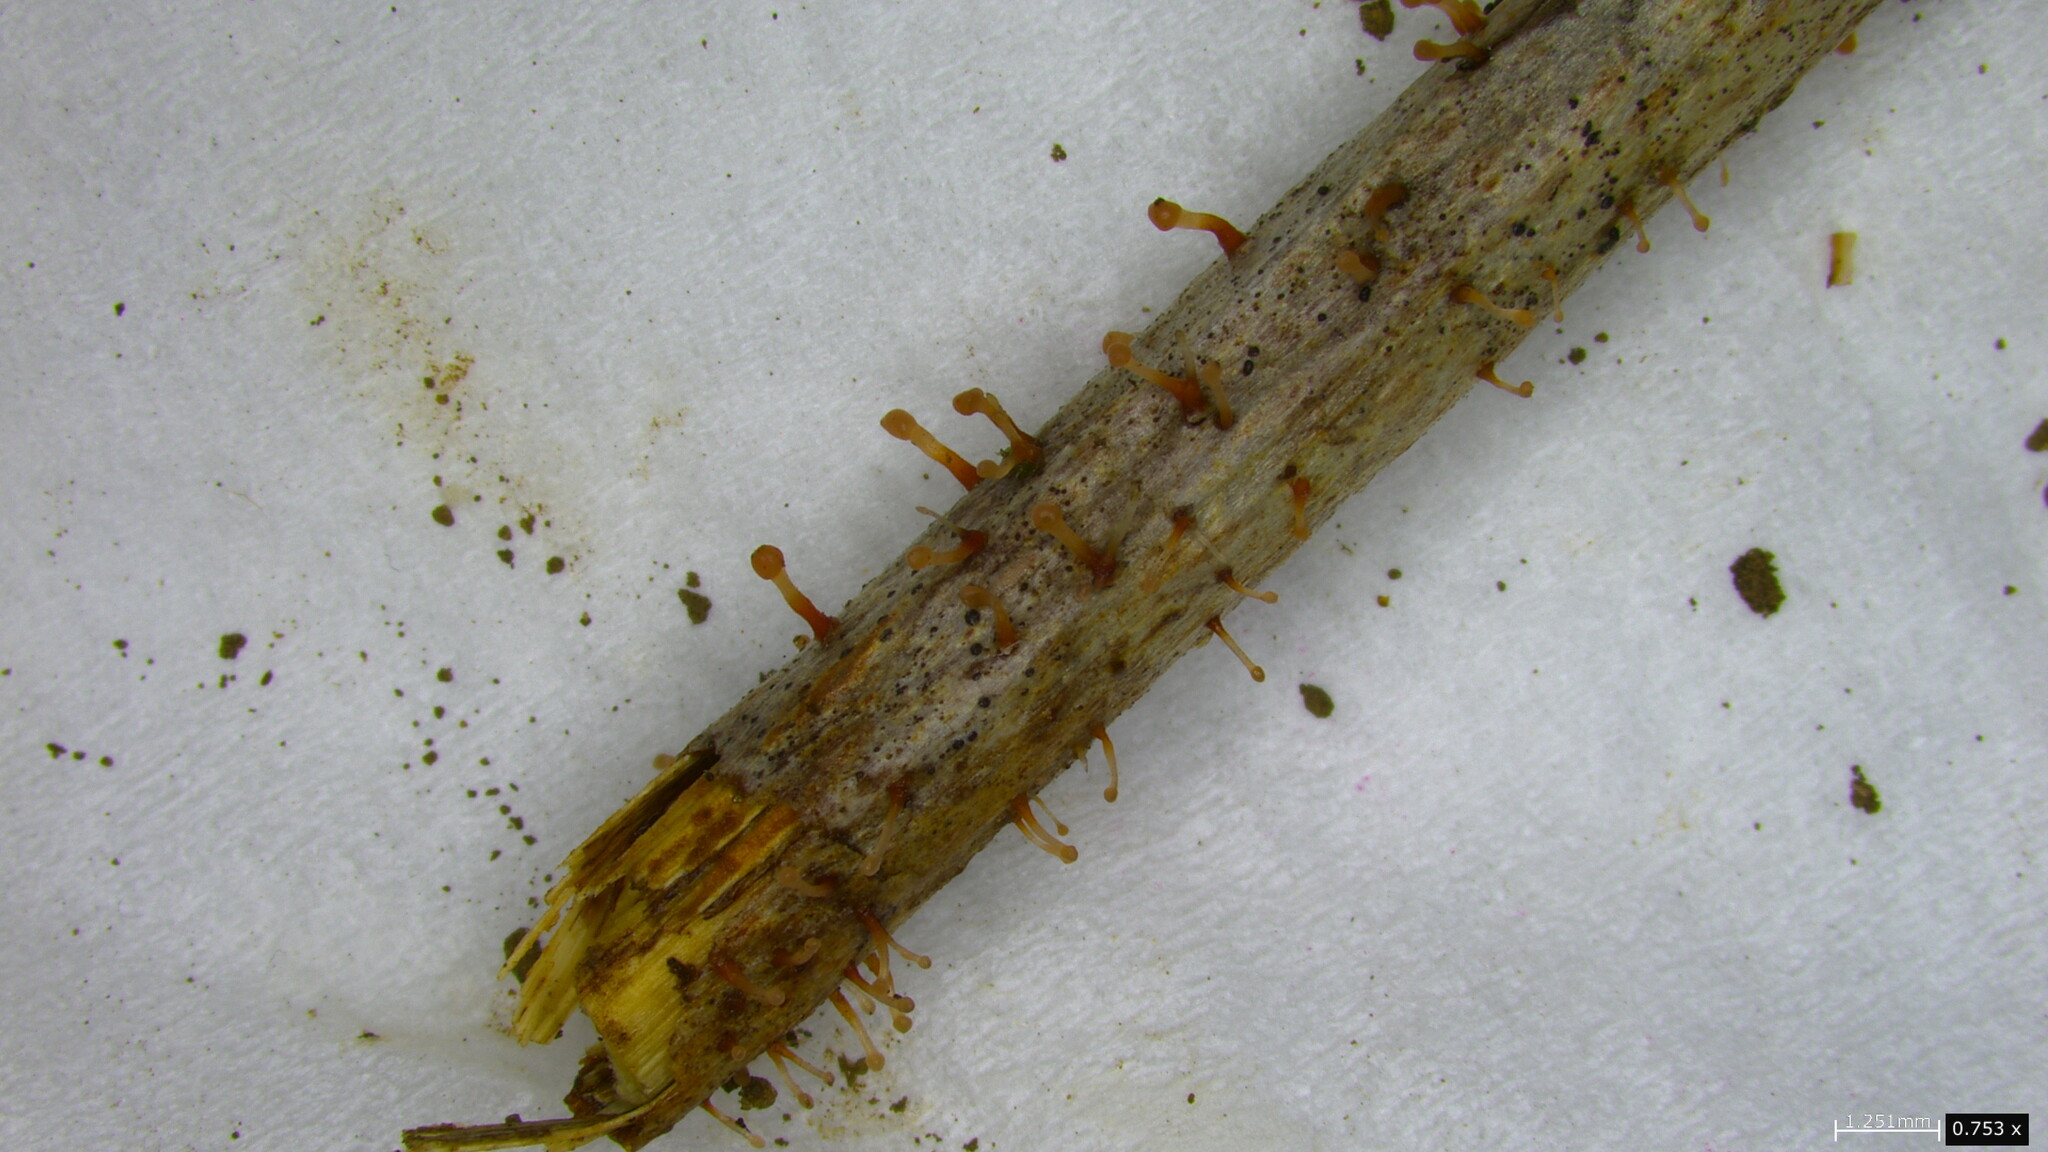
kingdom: Fungi
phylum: Ascomycota
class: Sordariomycetes
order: Hypocreales
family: Nectriaceae
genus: Nectria
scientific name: Nectria pseudotrichia
